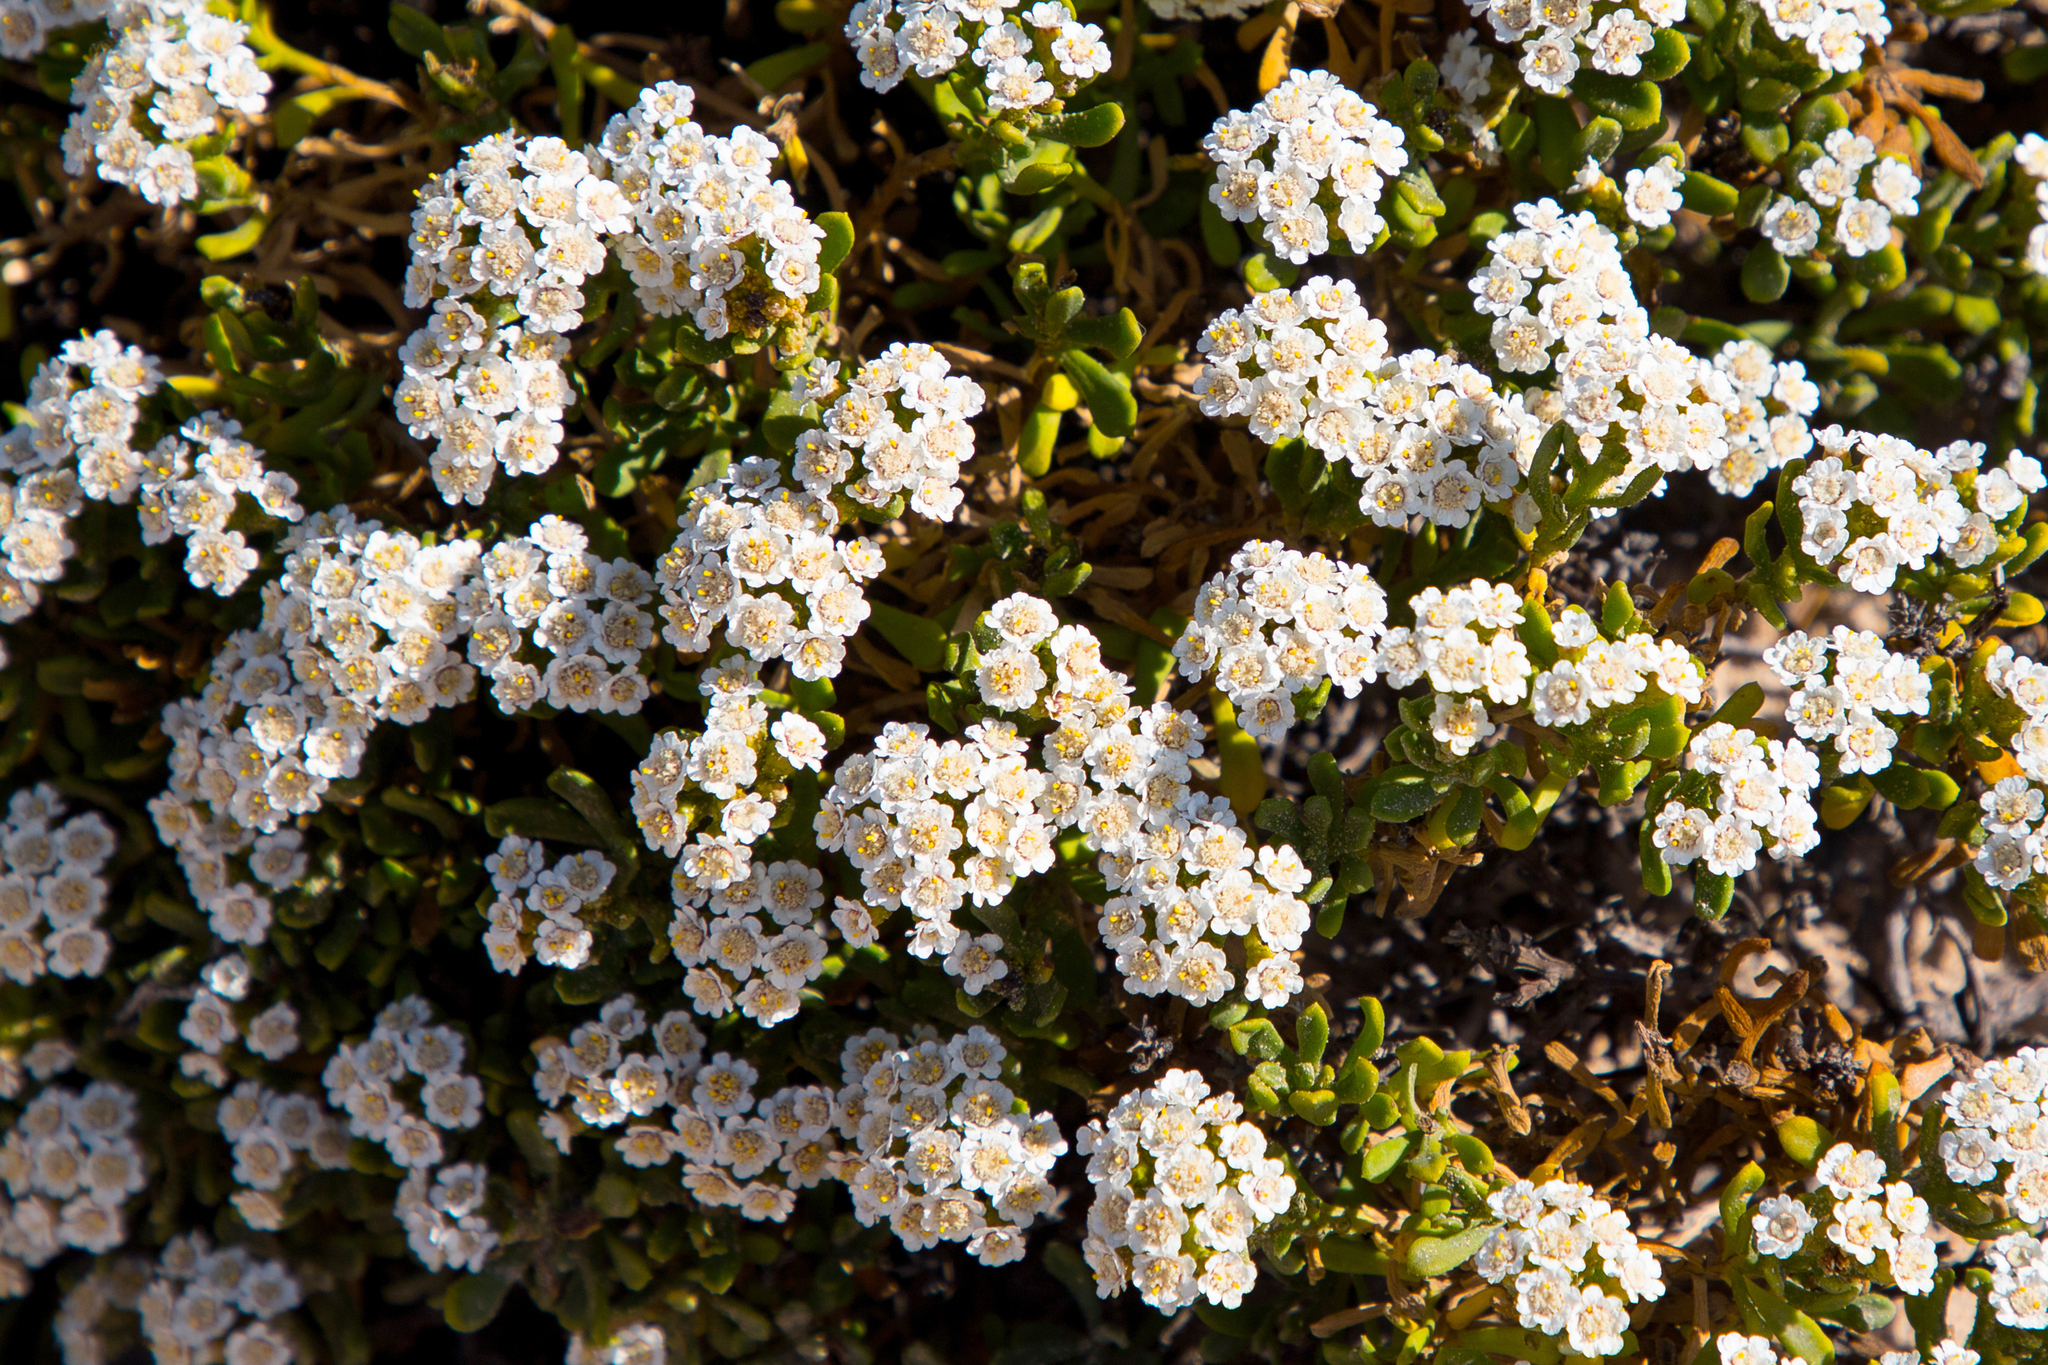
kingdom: Plantae
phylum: Tracheophyta
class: Magnoliopsida
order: Asterales
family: Asteraceae
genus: Ixodia
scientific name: Ixodia achillaeoides
